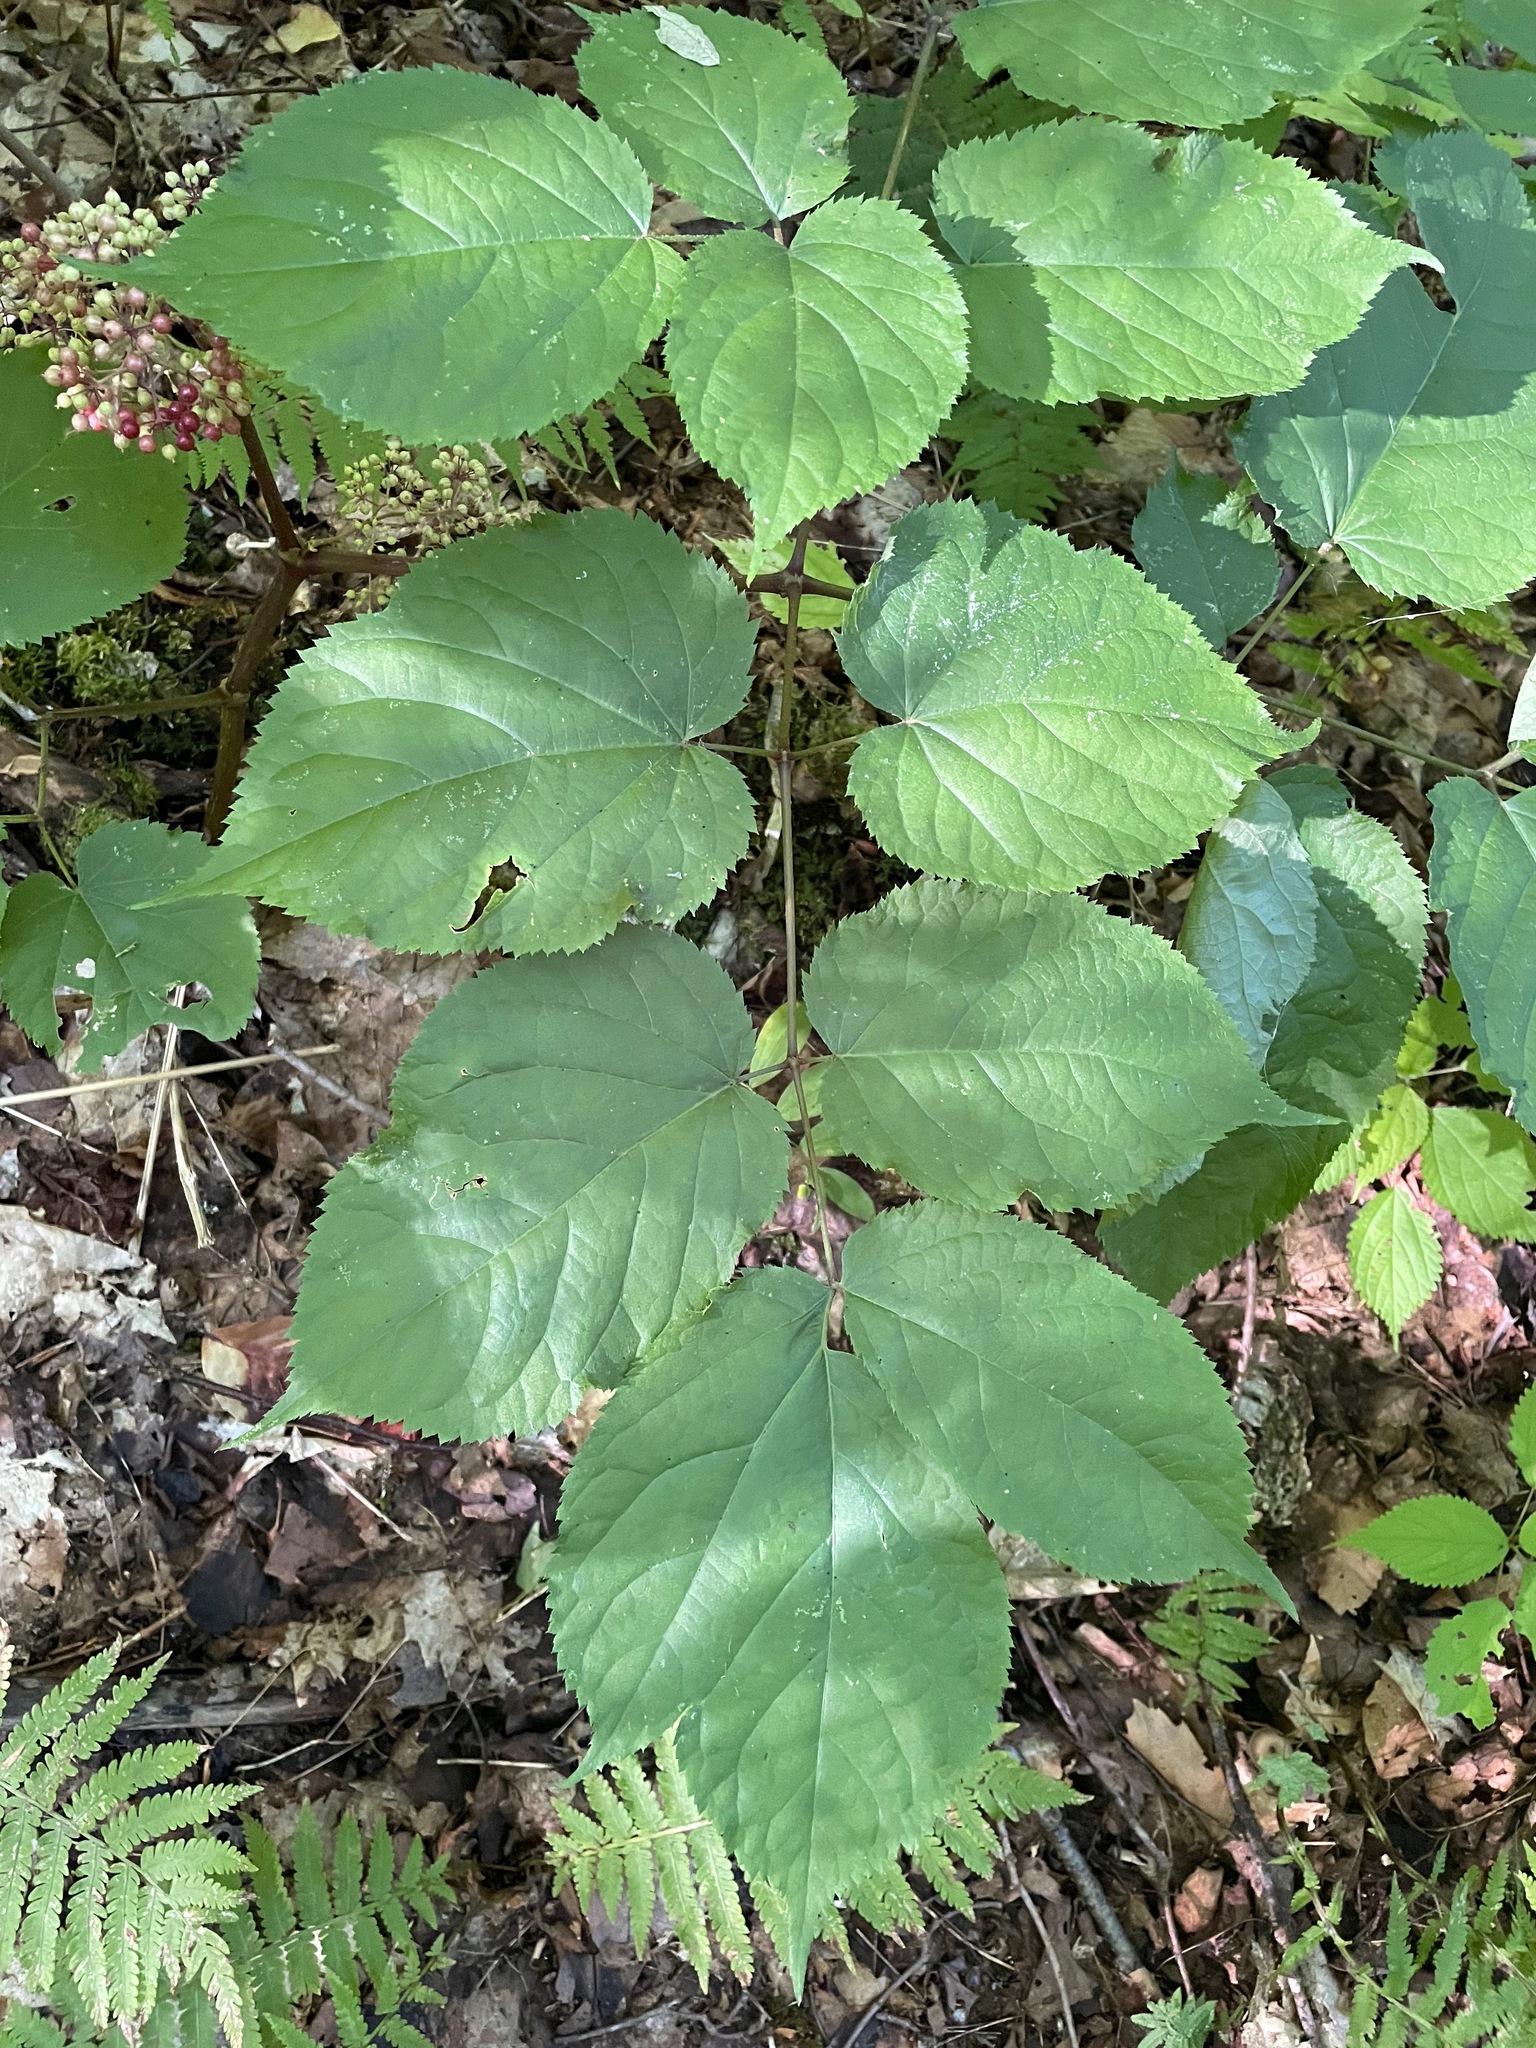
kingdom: Plantae
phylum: Tracheophyta
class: Magnoliopsida
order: Apiales
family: Araliaceae
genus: Aralia
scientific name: Aralia racemosa
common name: American-spikenard
